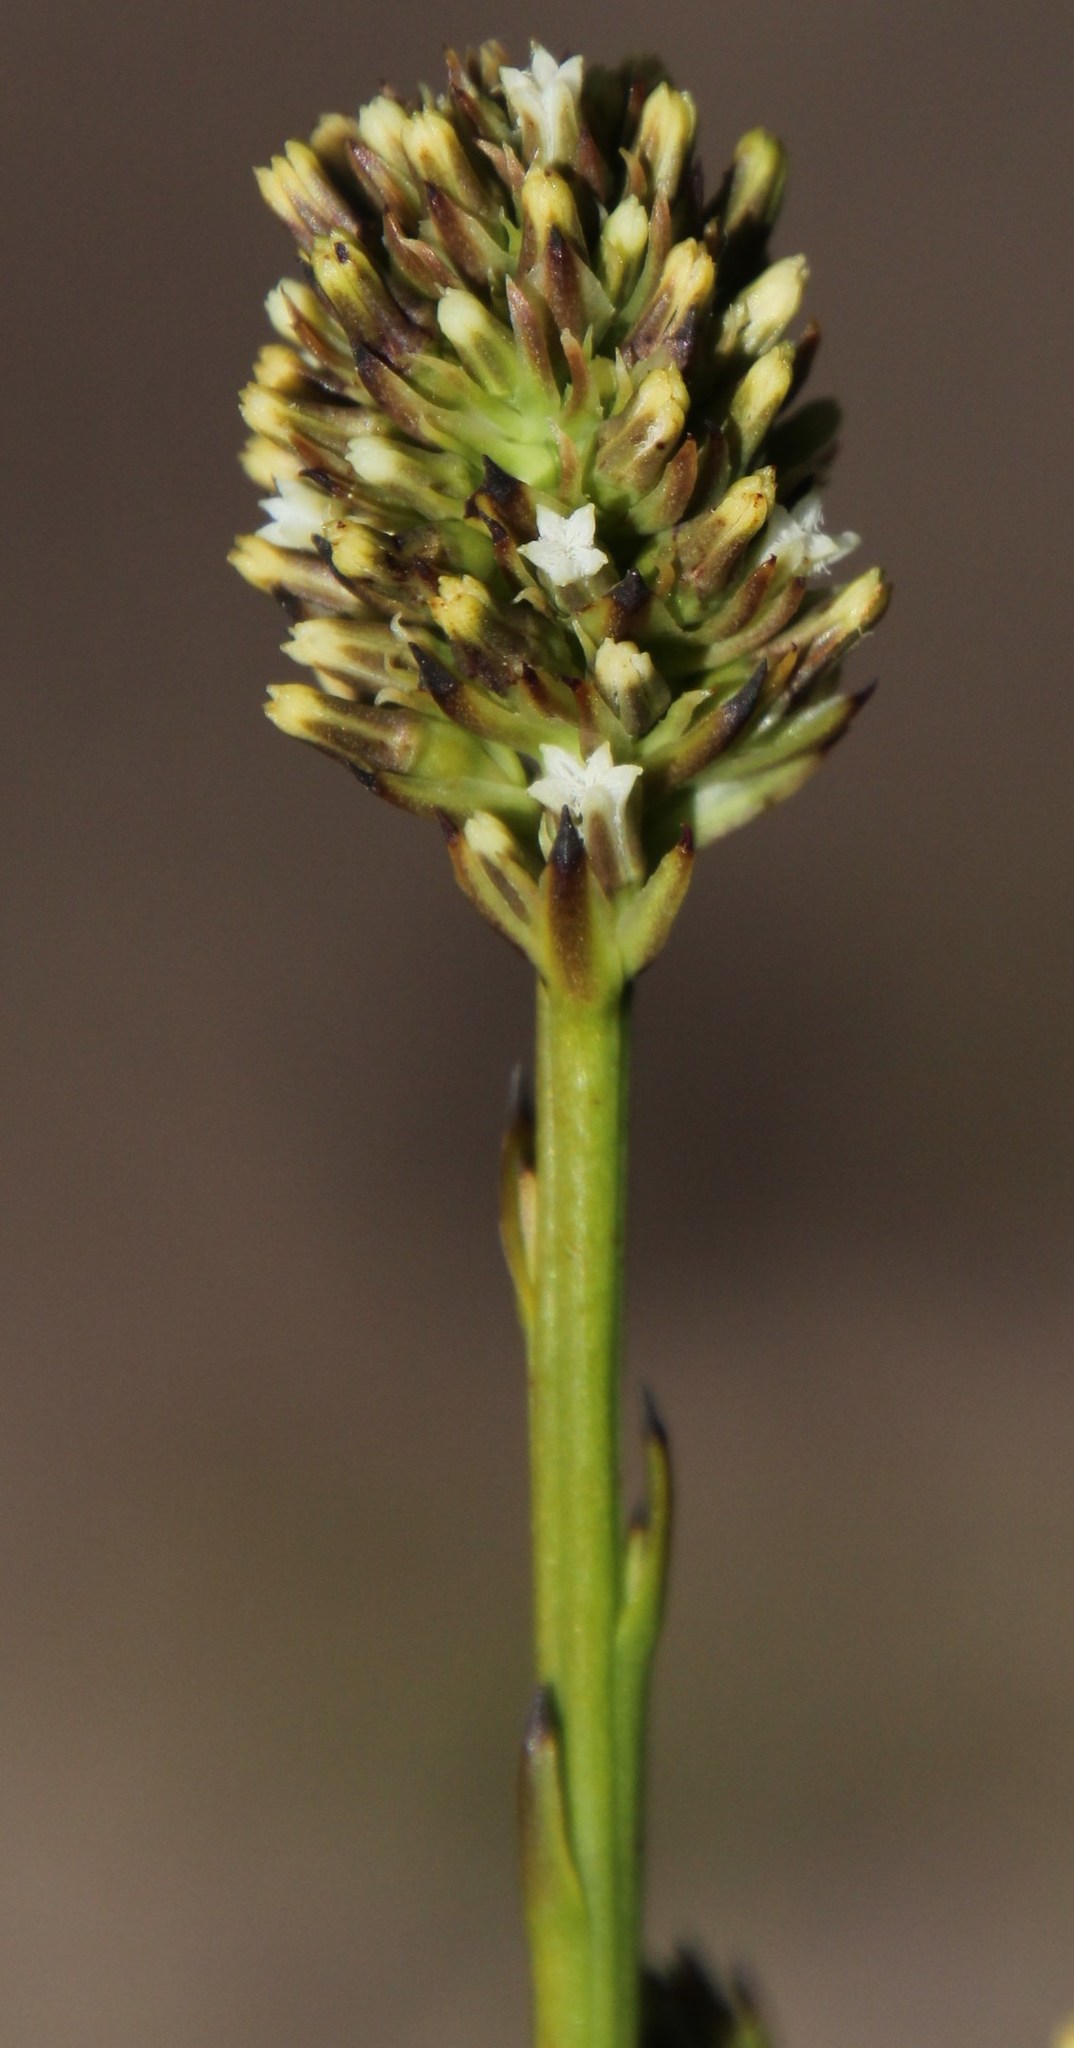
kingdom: Plantae
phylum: Tracheophyta
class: Magnoliopsida
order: Santalales
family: Thesiaceae
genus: Thesium
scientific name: Thesium spicatum
